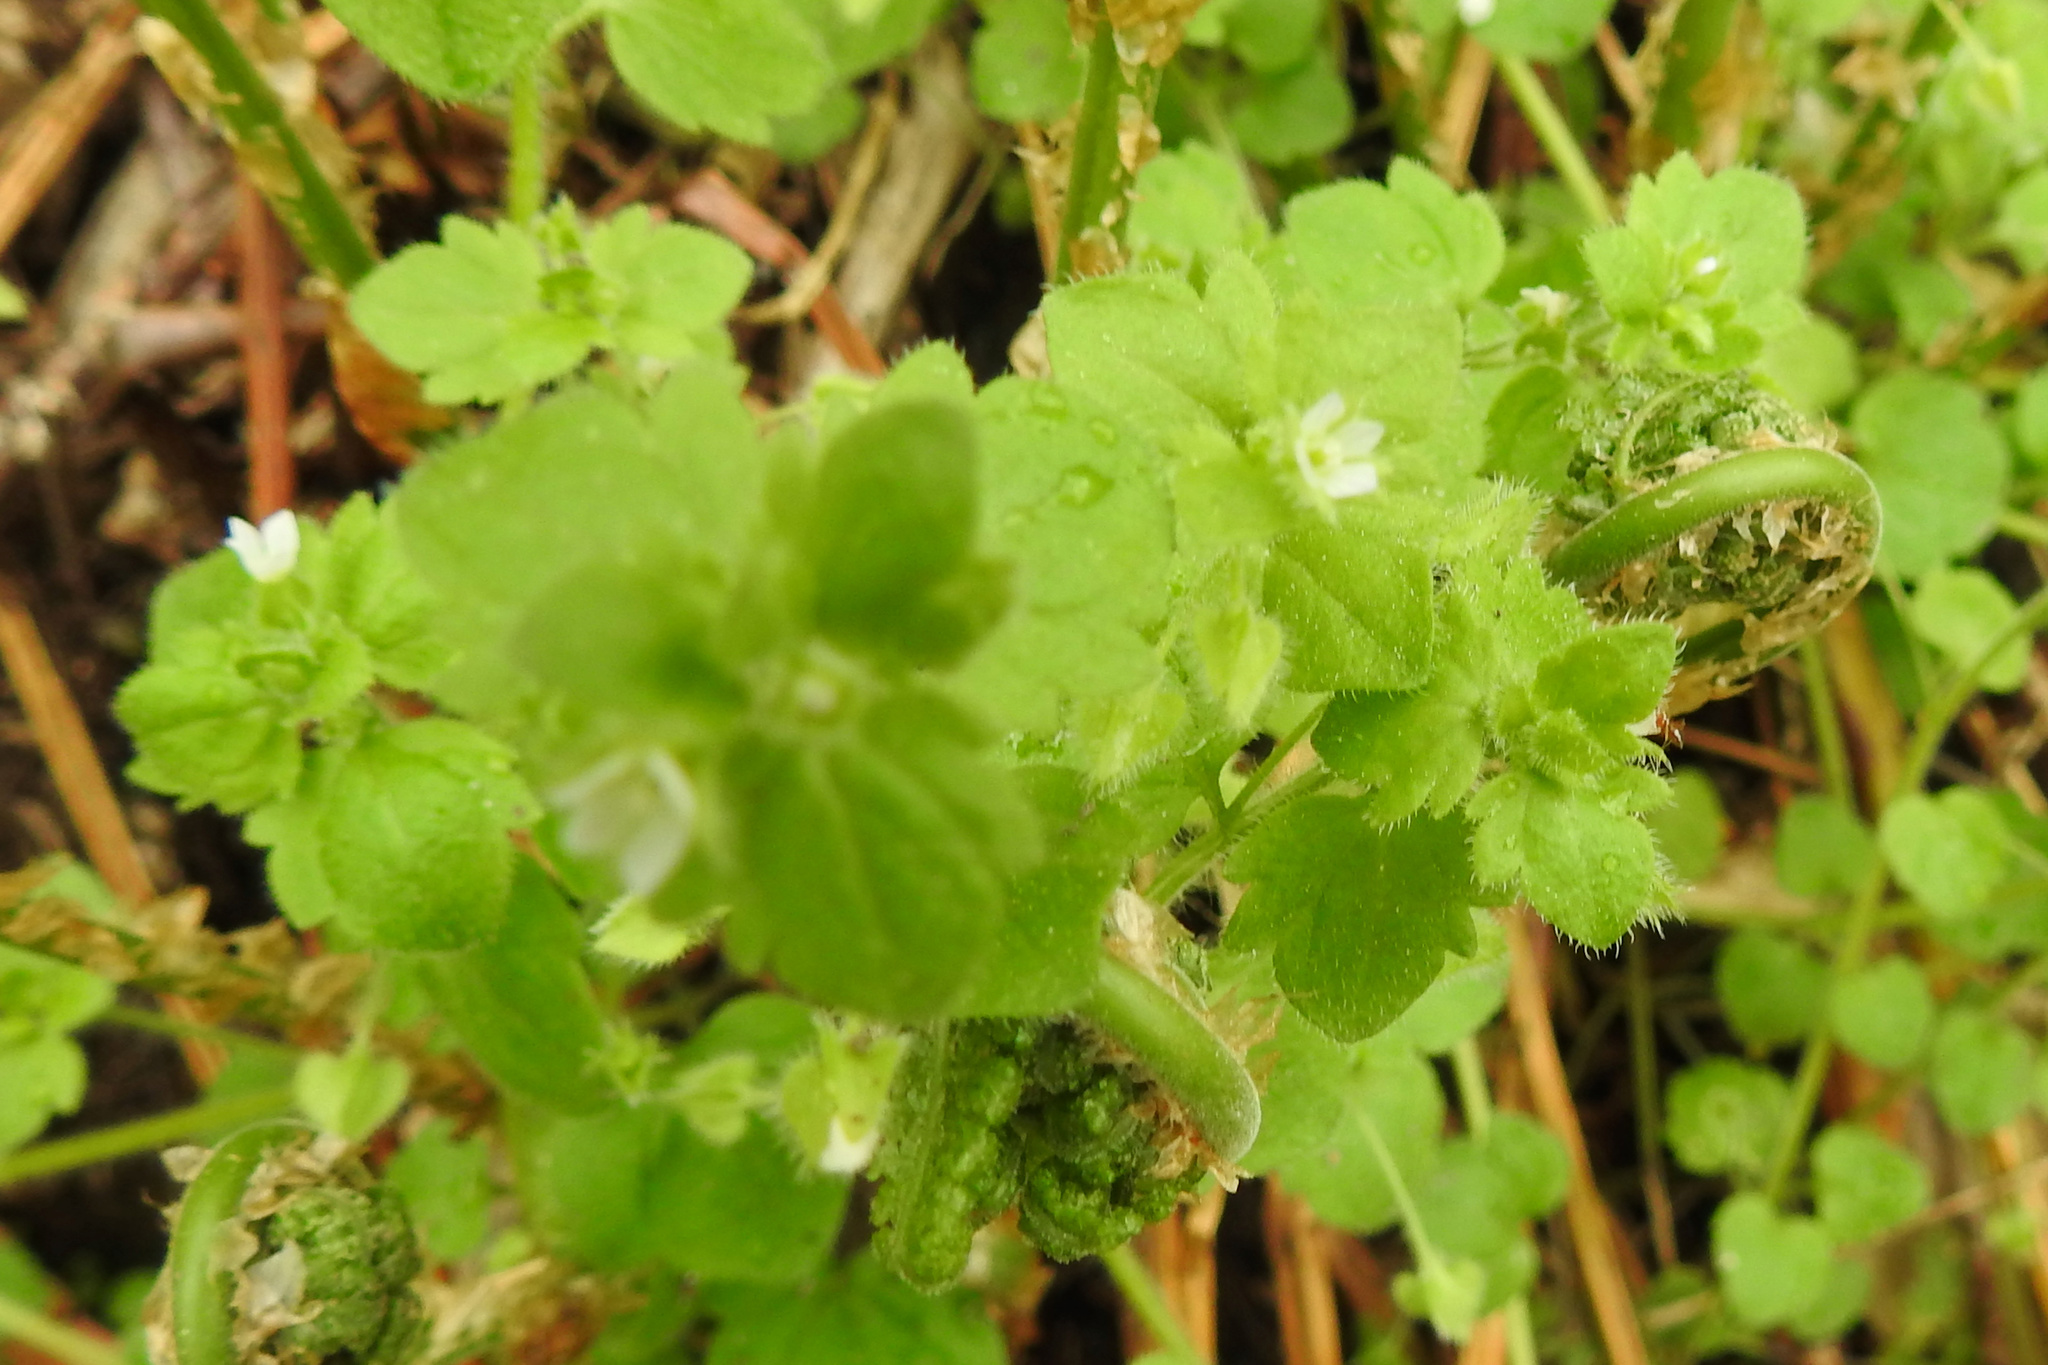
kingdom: Plantae
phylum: Tracheophyta
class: Magnoliopsida
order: Lamiales
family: Plantaginaceae
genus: Veronica
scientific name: Veronica sublobata
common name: False ivy-leaved speedwell
